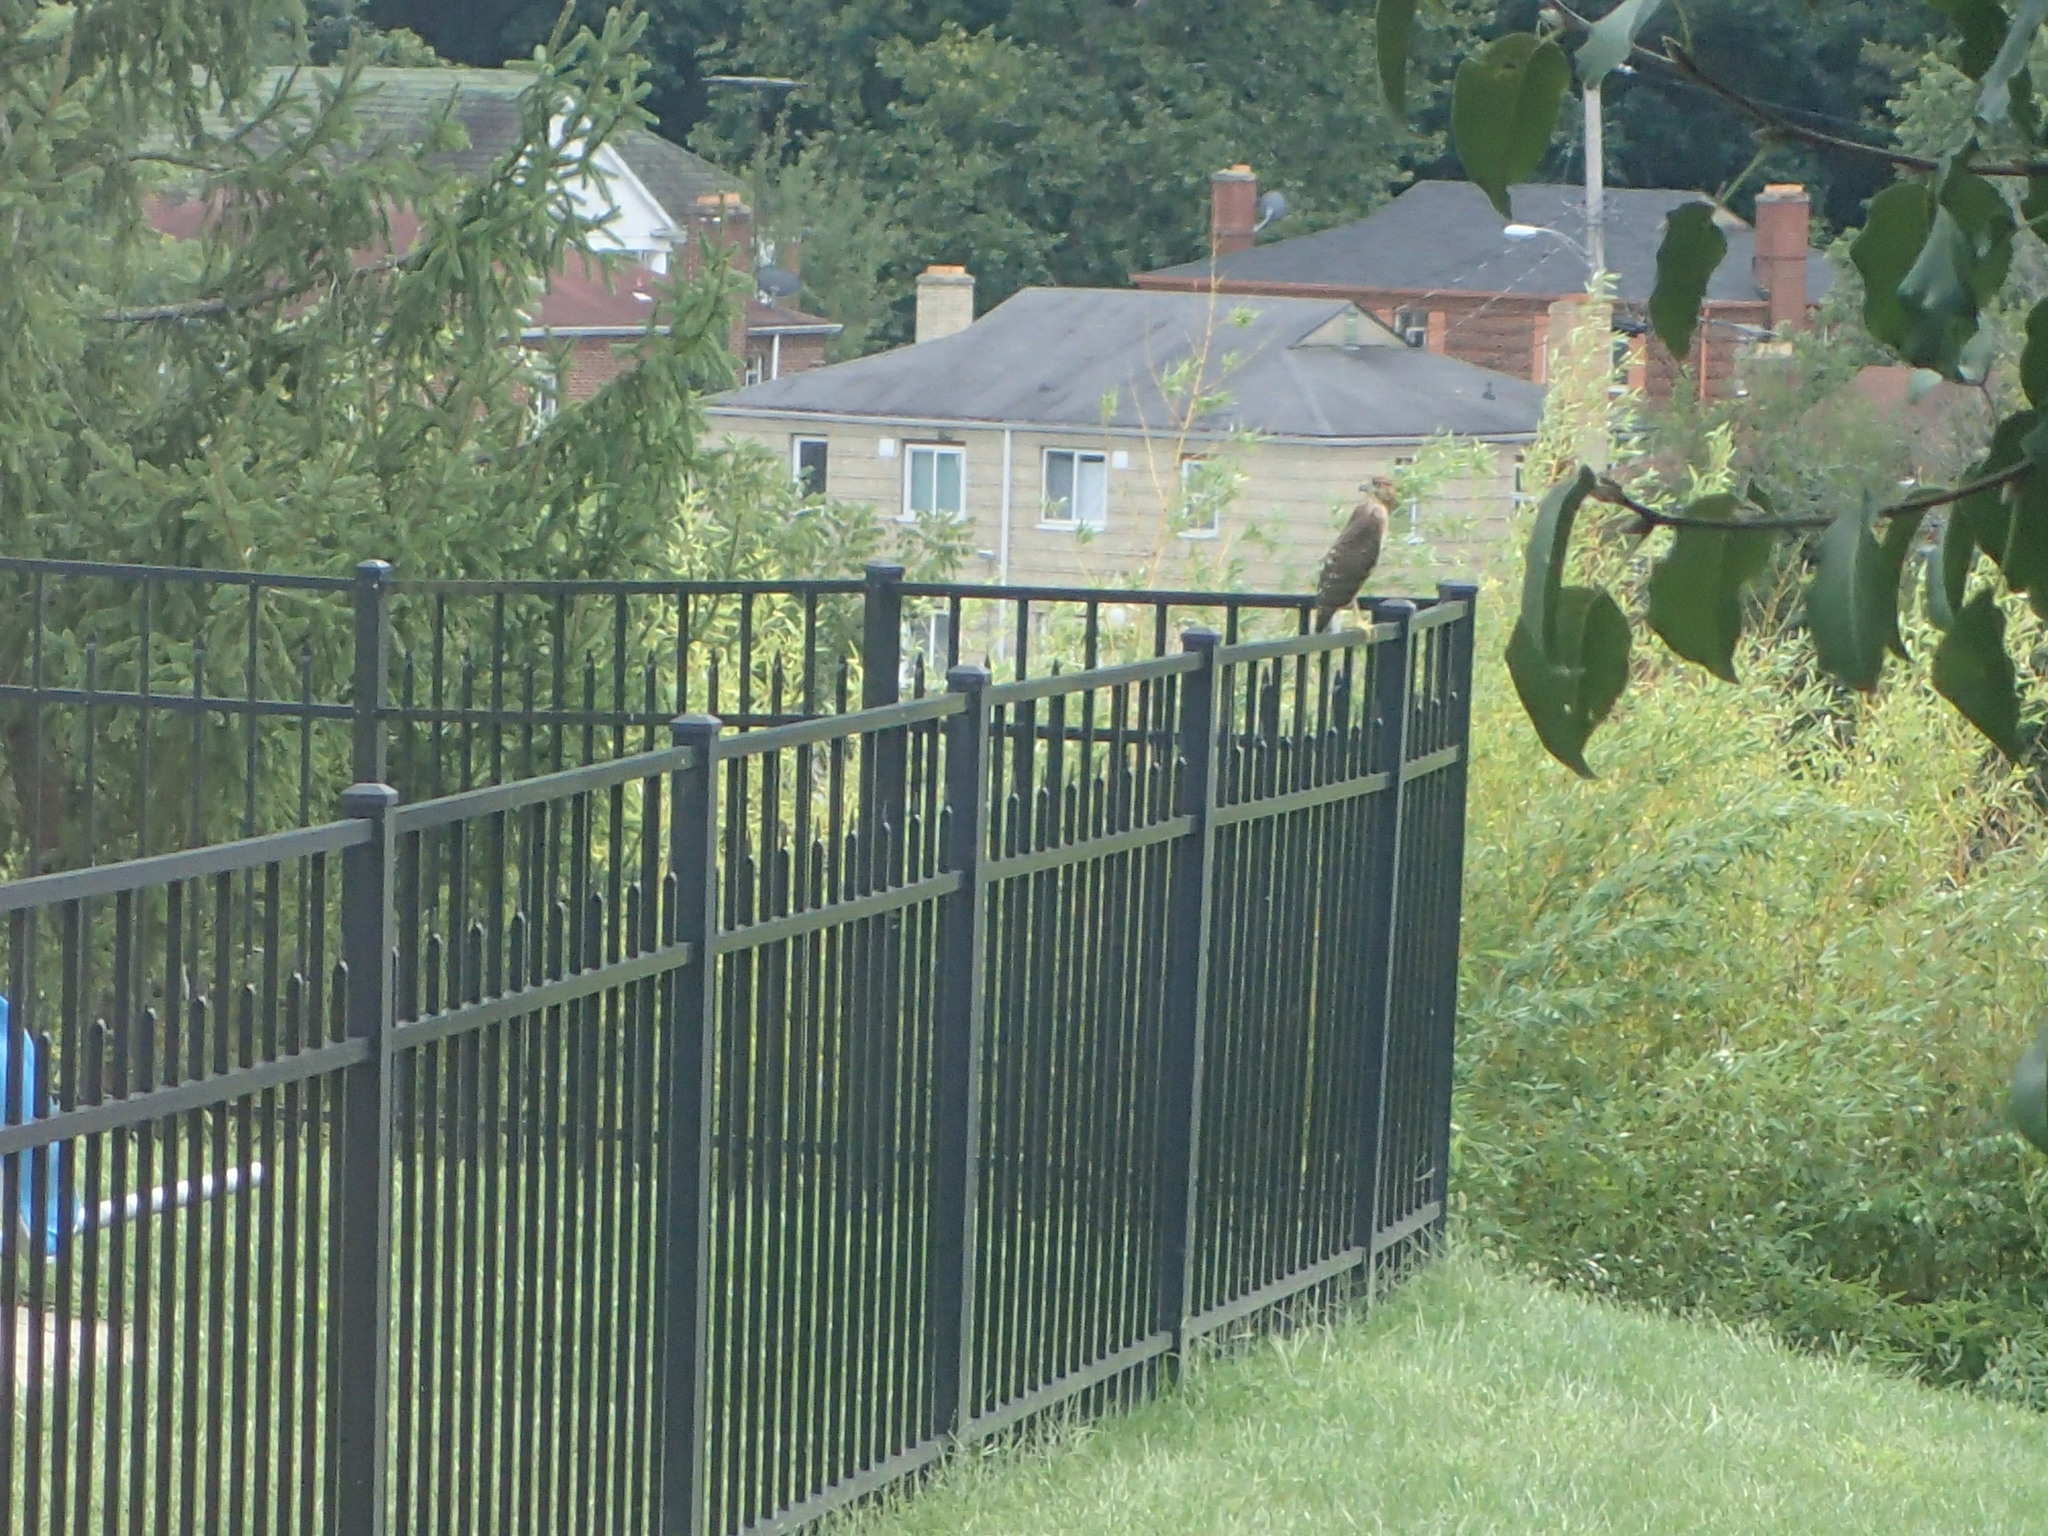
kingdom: Animalia
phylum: Chordata
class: Aves
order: Accipitriformes
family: Accipitridae
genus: Buteo
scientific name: Buteo lineatus
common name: Red-shouldered hawk
